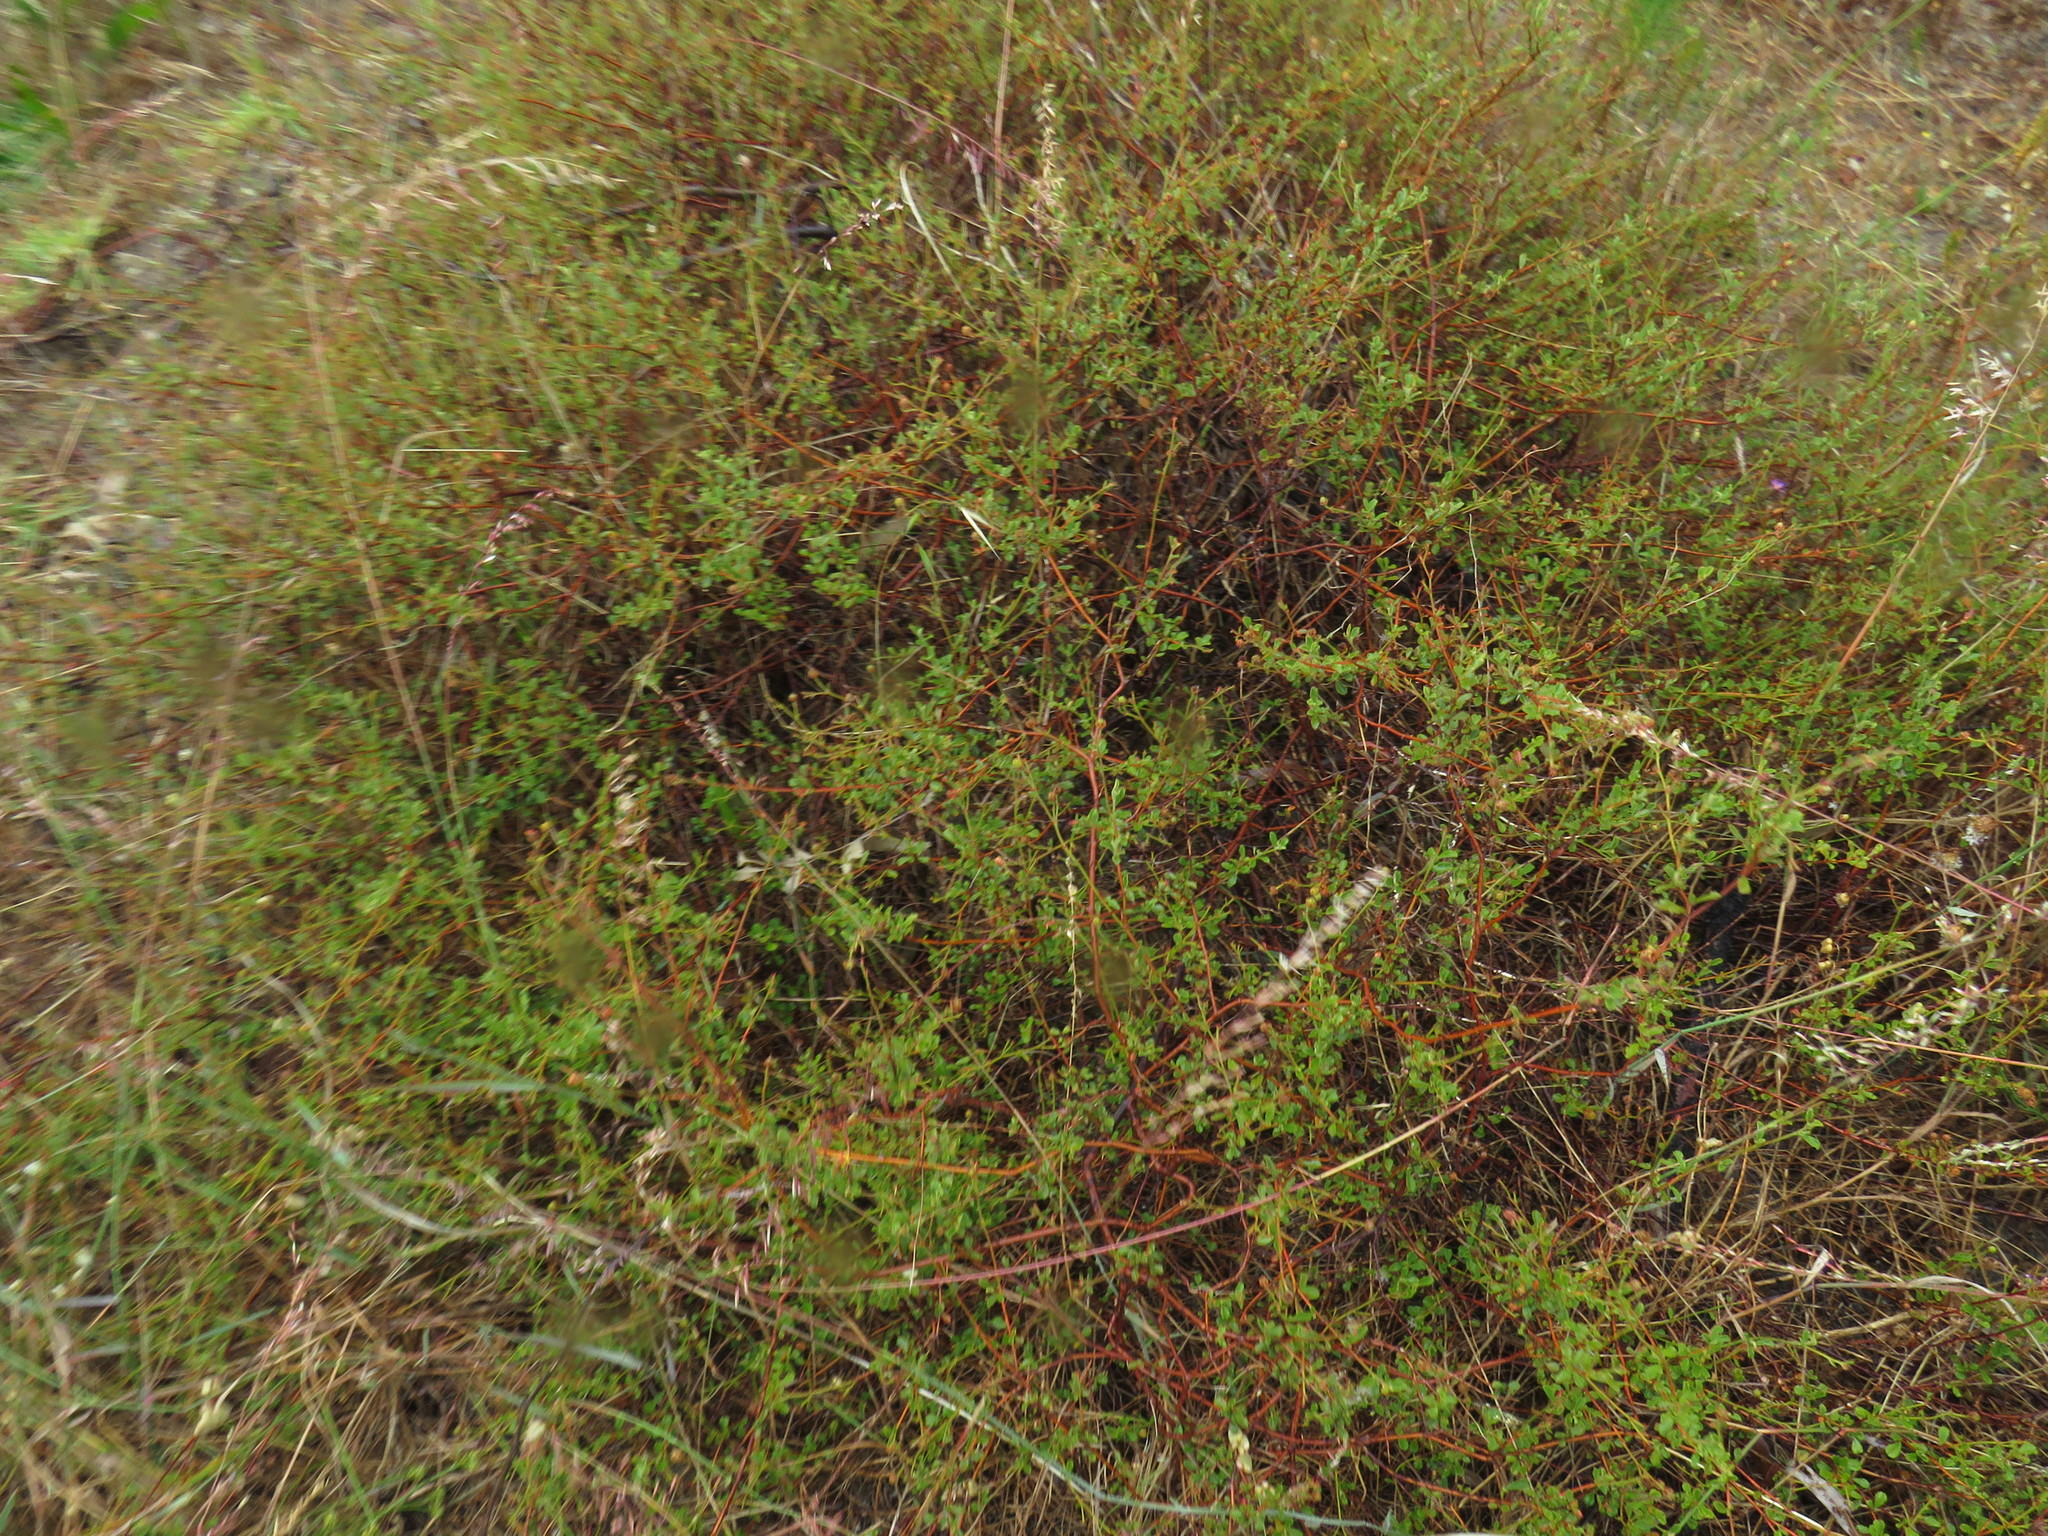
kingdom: Plantae
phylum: Tracheophyta
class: Magnoliopsida
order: Malvales
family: Malvaceae
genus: Hermannia
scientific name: Hermannia multiflora
